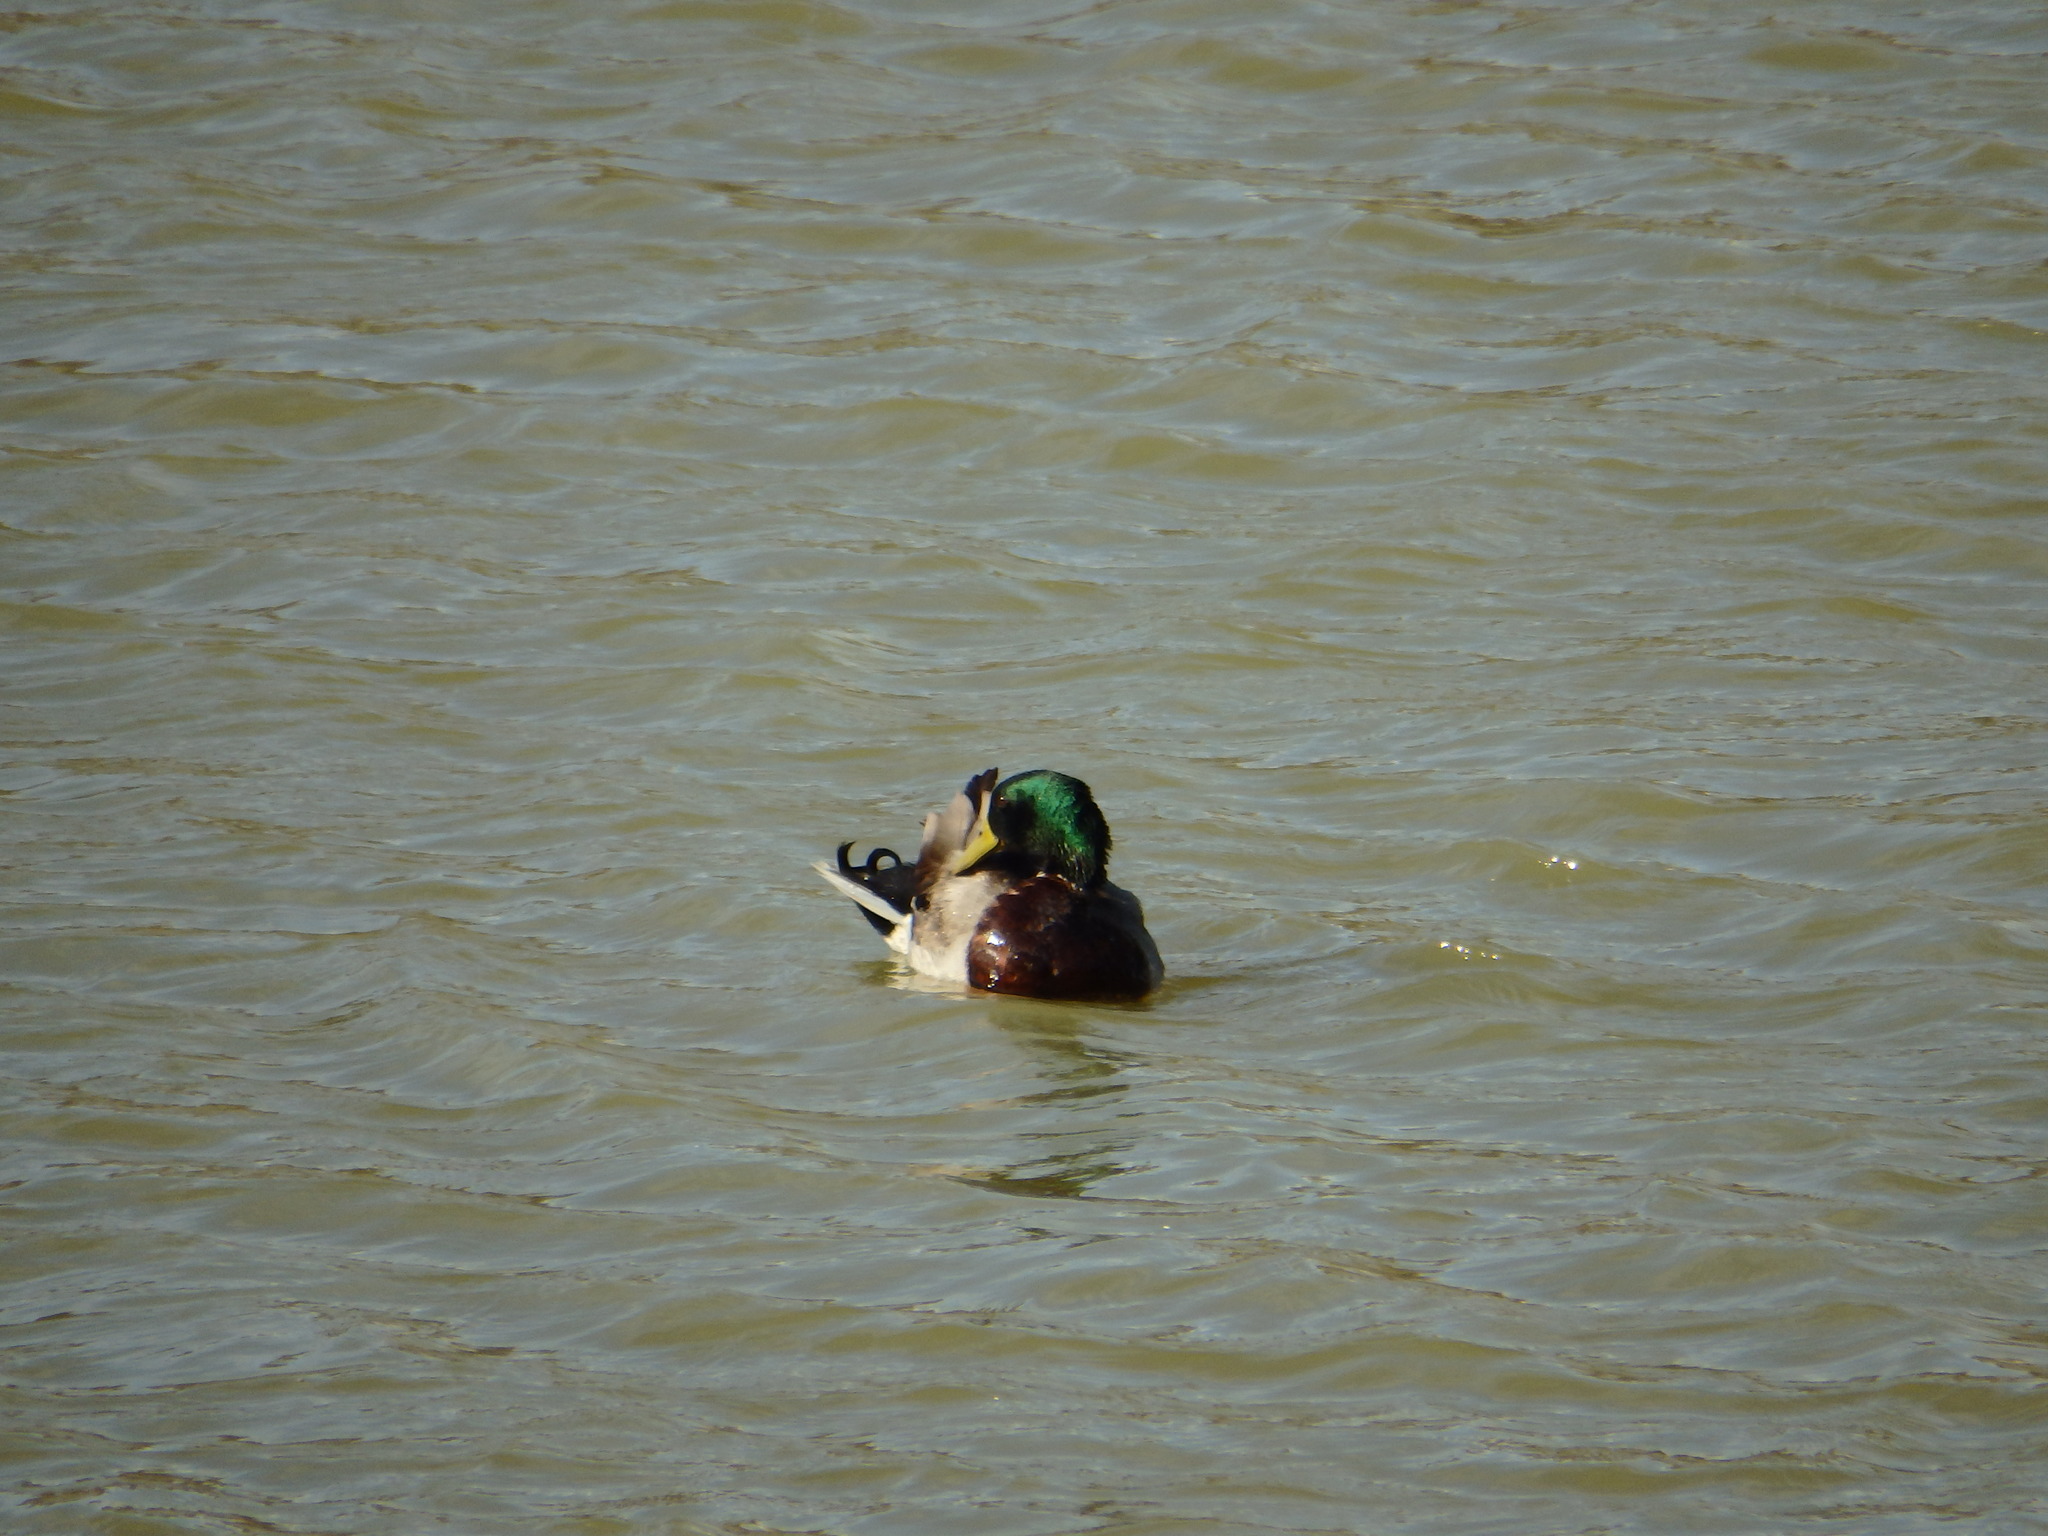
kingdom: Animalia
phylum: Chordata
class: Aves
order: Anseriformes
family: Anatidae
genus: Anas
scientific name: Anas platyrhynchos
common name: Mallard
